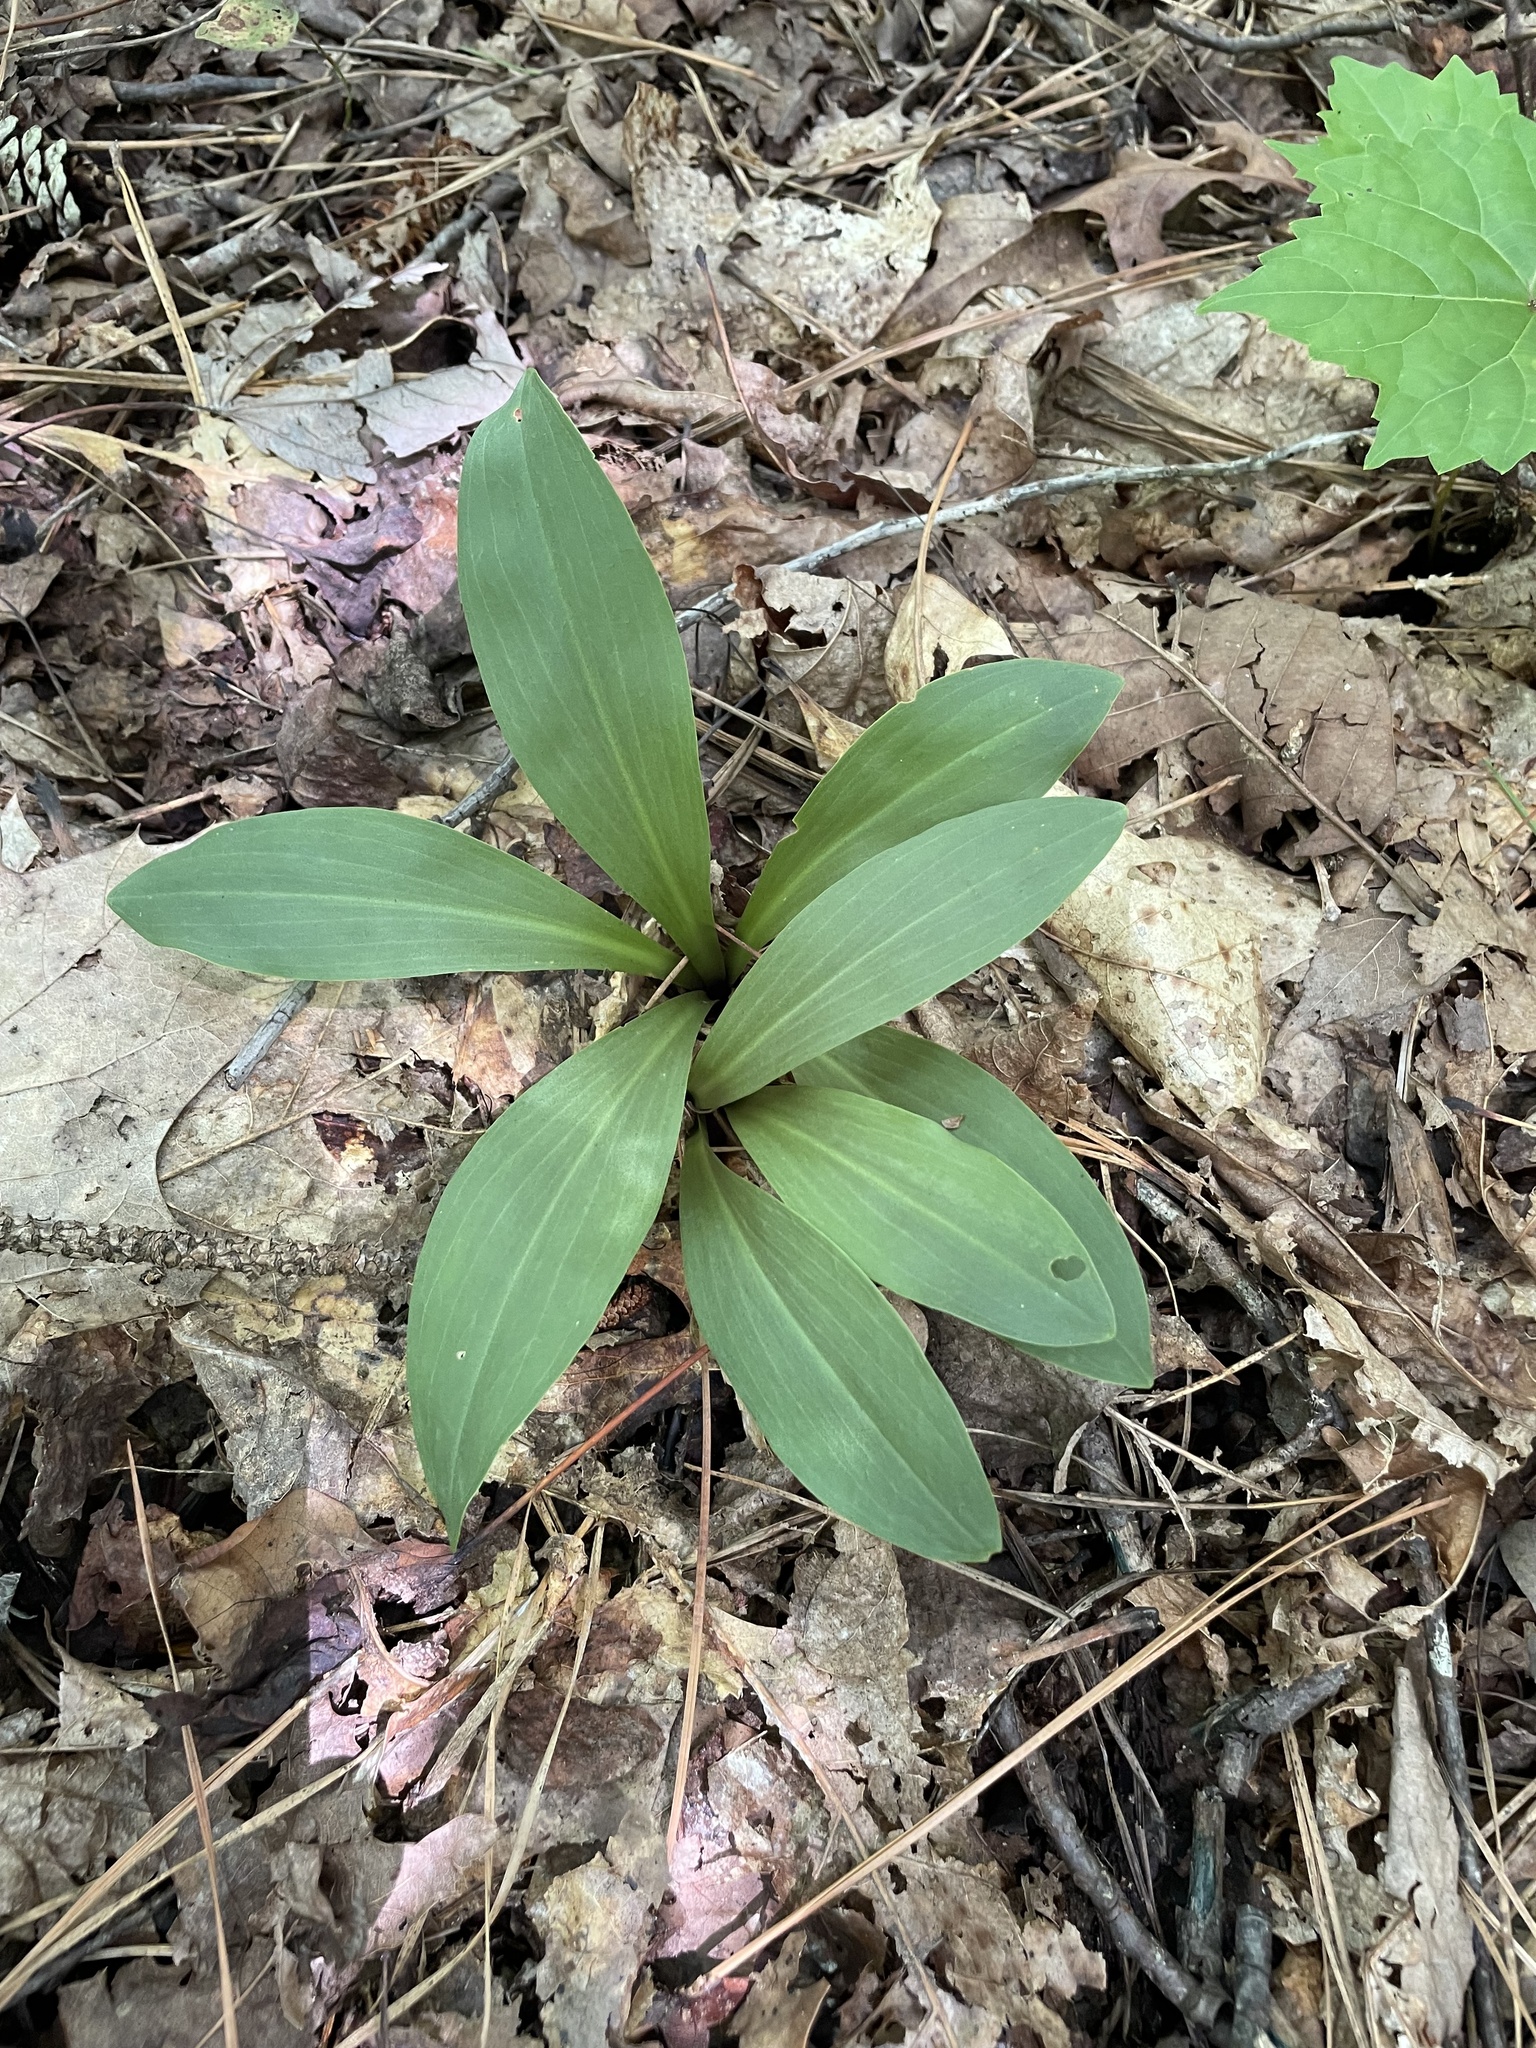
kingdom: Plantae
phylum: Tracheophyta
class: Liliopsida
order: Liliales
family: Melanthiaceae
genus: Chamaelirium
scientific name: Chamaelirium luteum
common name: Fairy-wand
